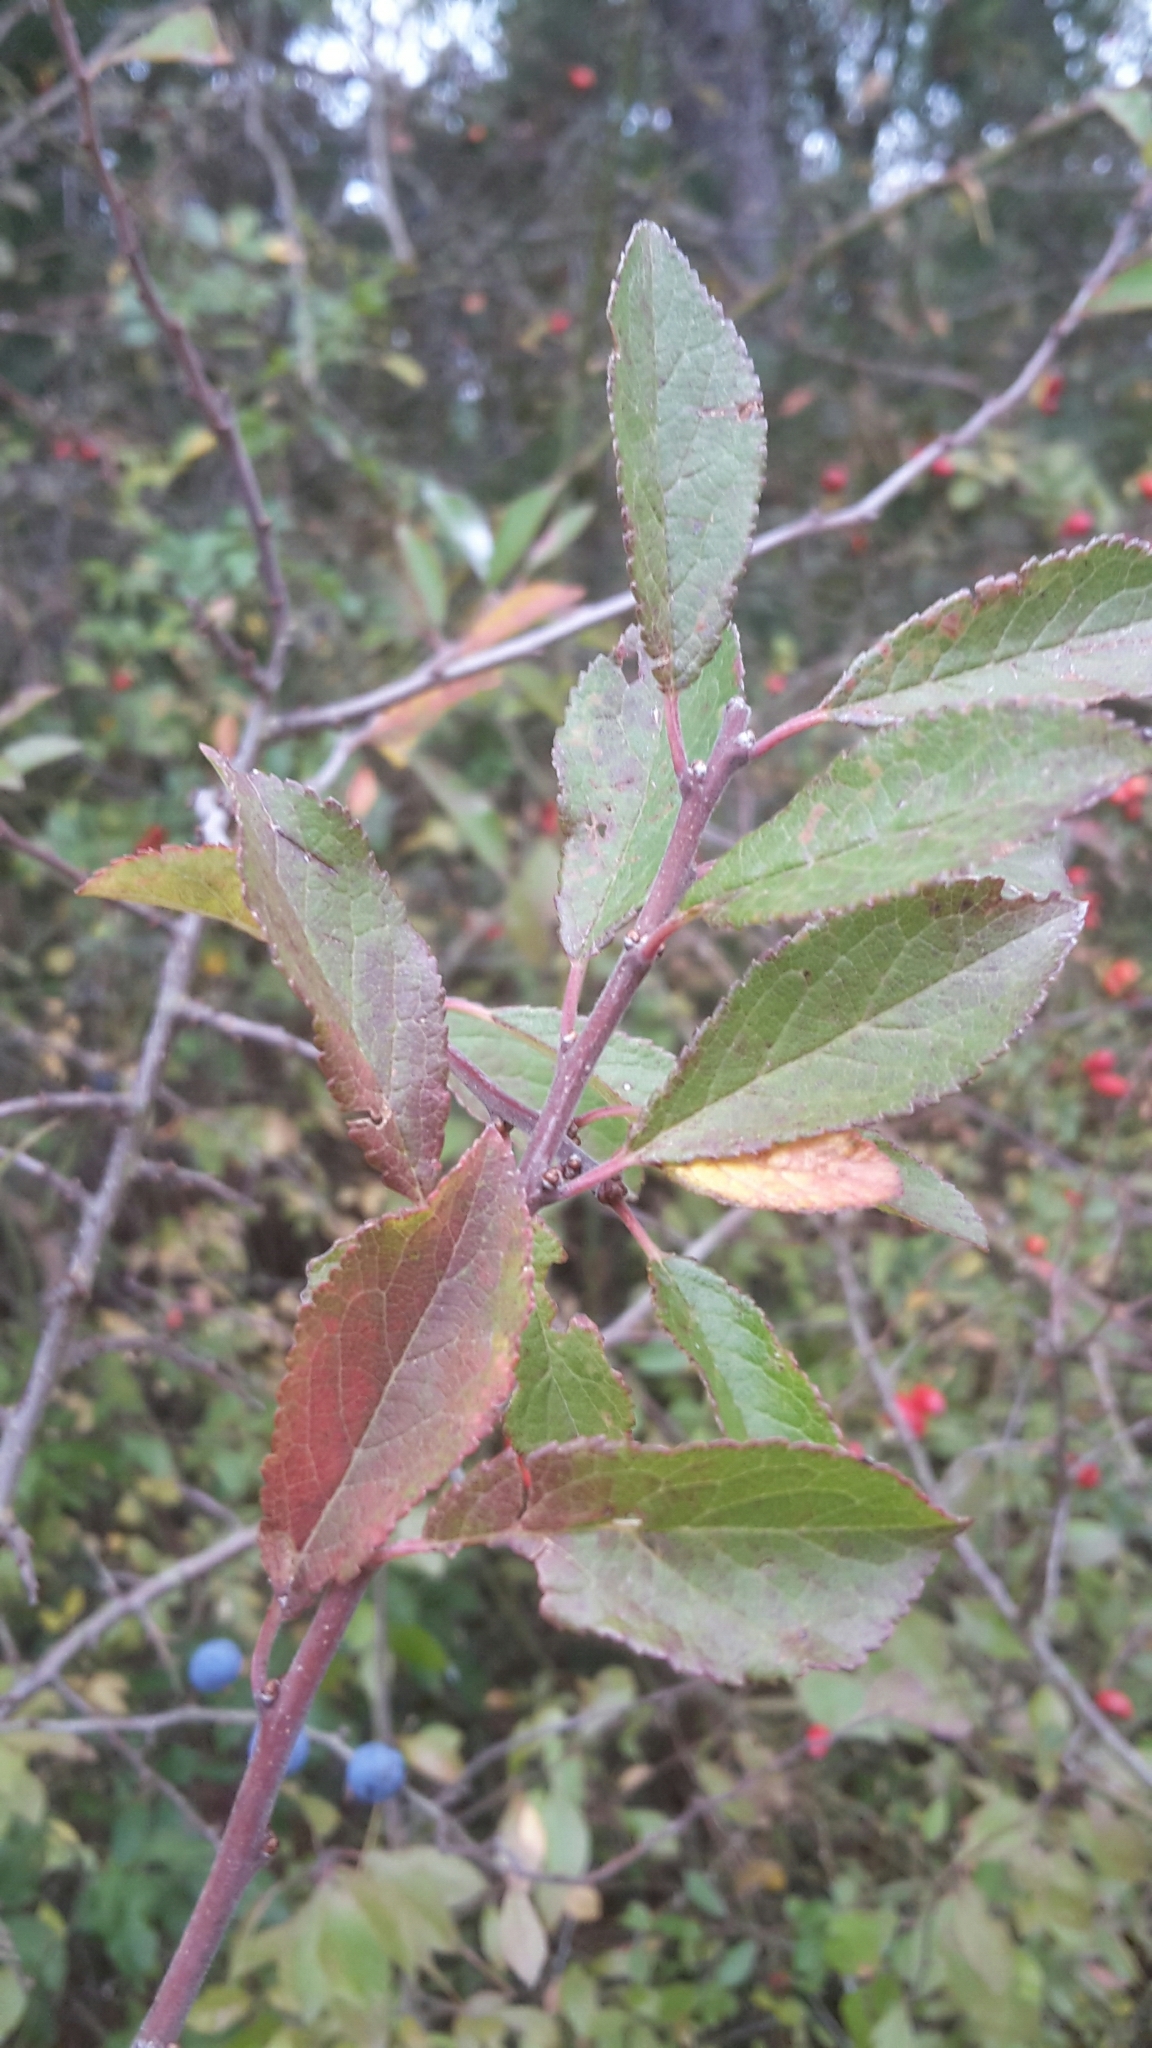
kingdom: Plantae
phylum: Tracheophyta
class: Magnoliopsida
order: Rosales
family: Rosaceae
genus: Prunus
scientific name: Prunus spinosa
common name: Blackthorn
